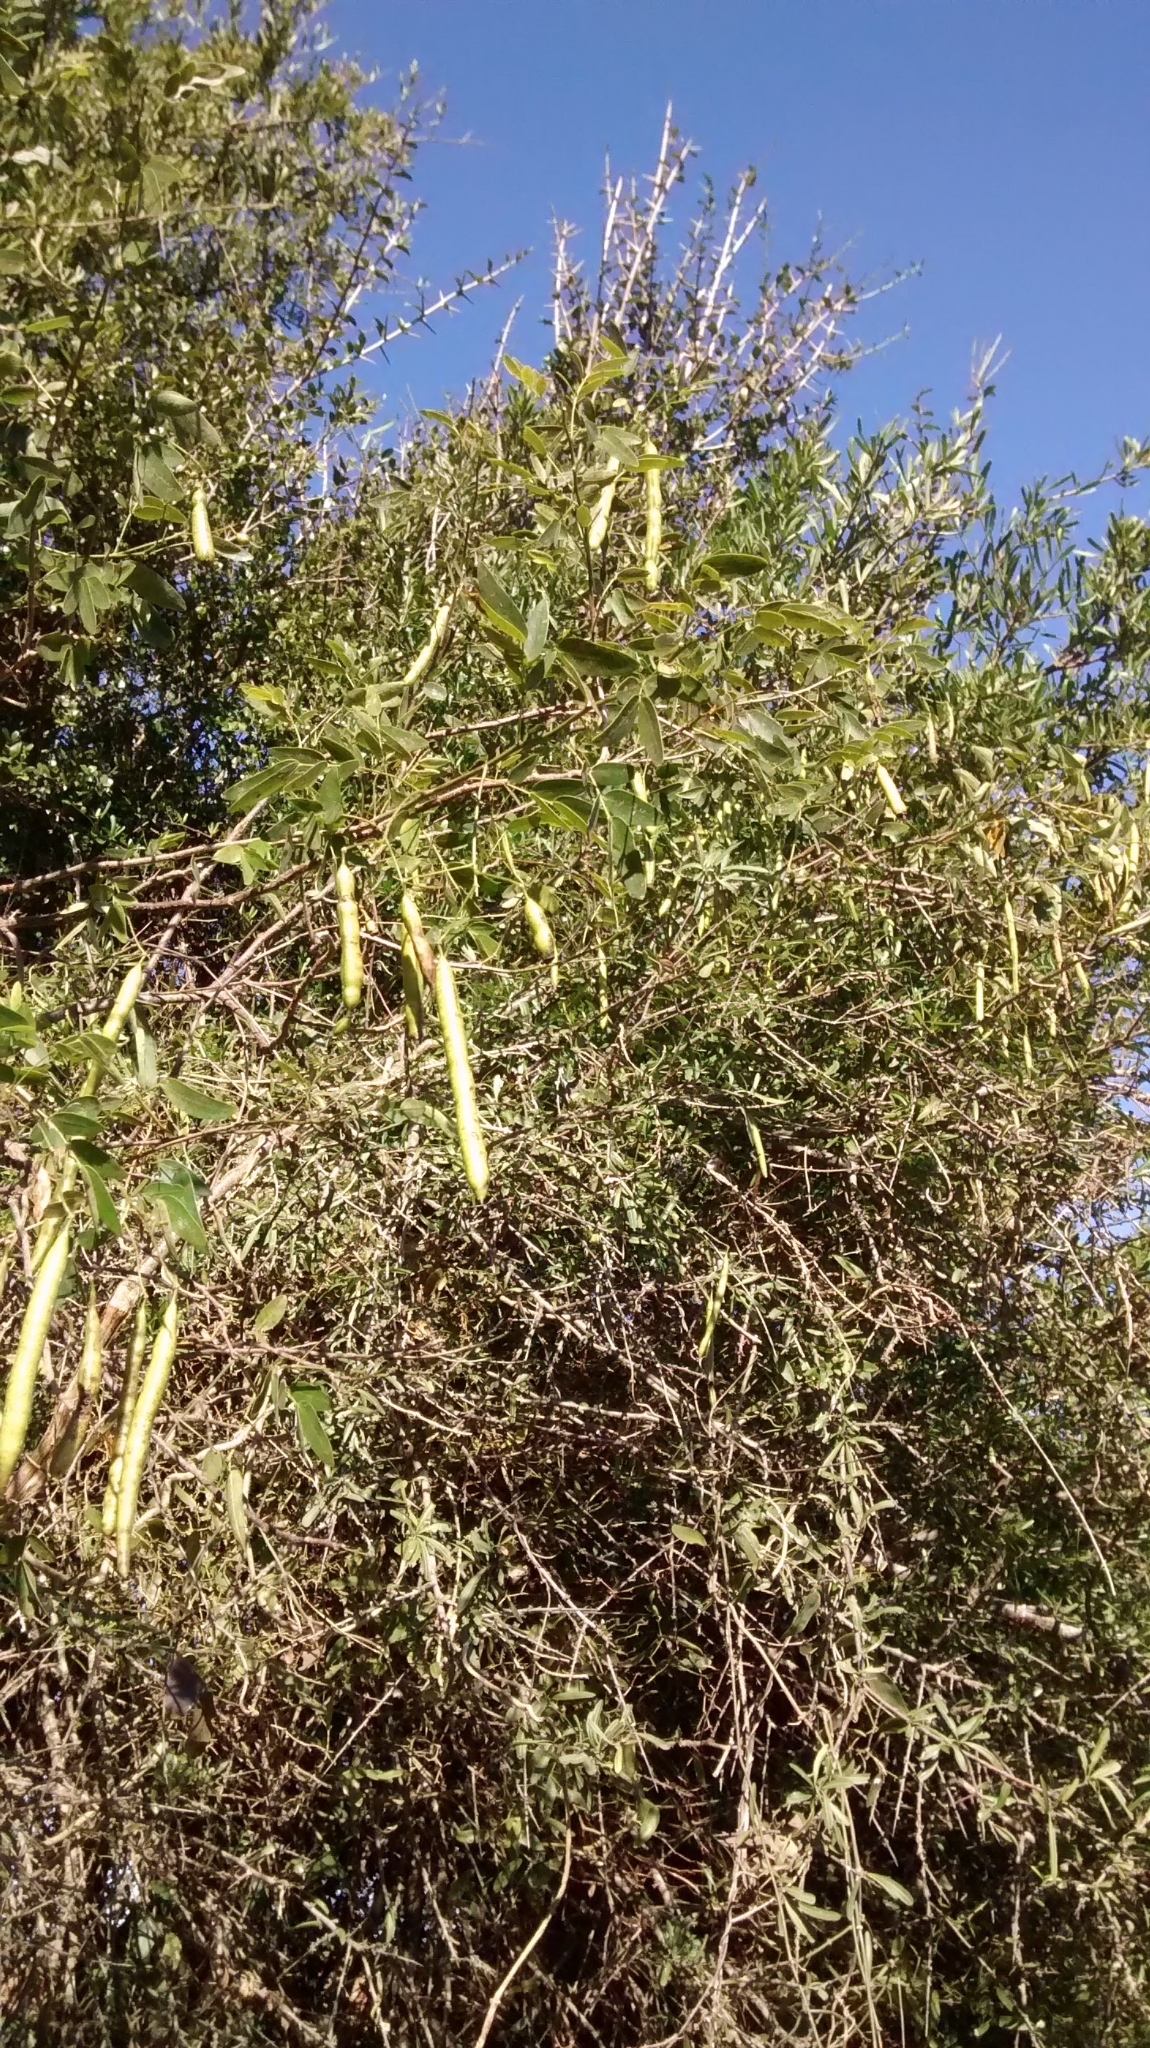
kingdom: Plantae
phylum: Tracheophyta
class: Magnoliopsida
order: Fabales
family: Fabaceae
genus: Senna
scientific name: Senna corymbosa
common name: Argentine senna
